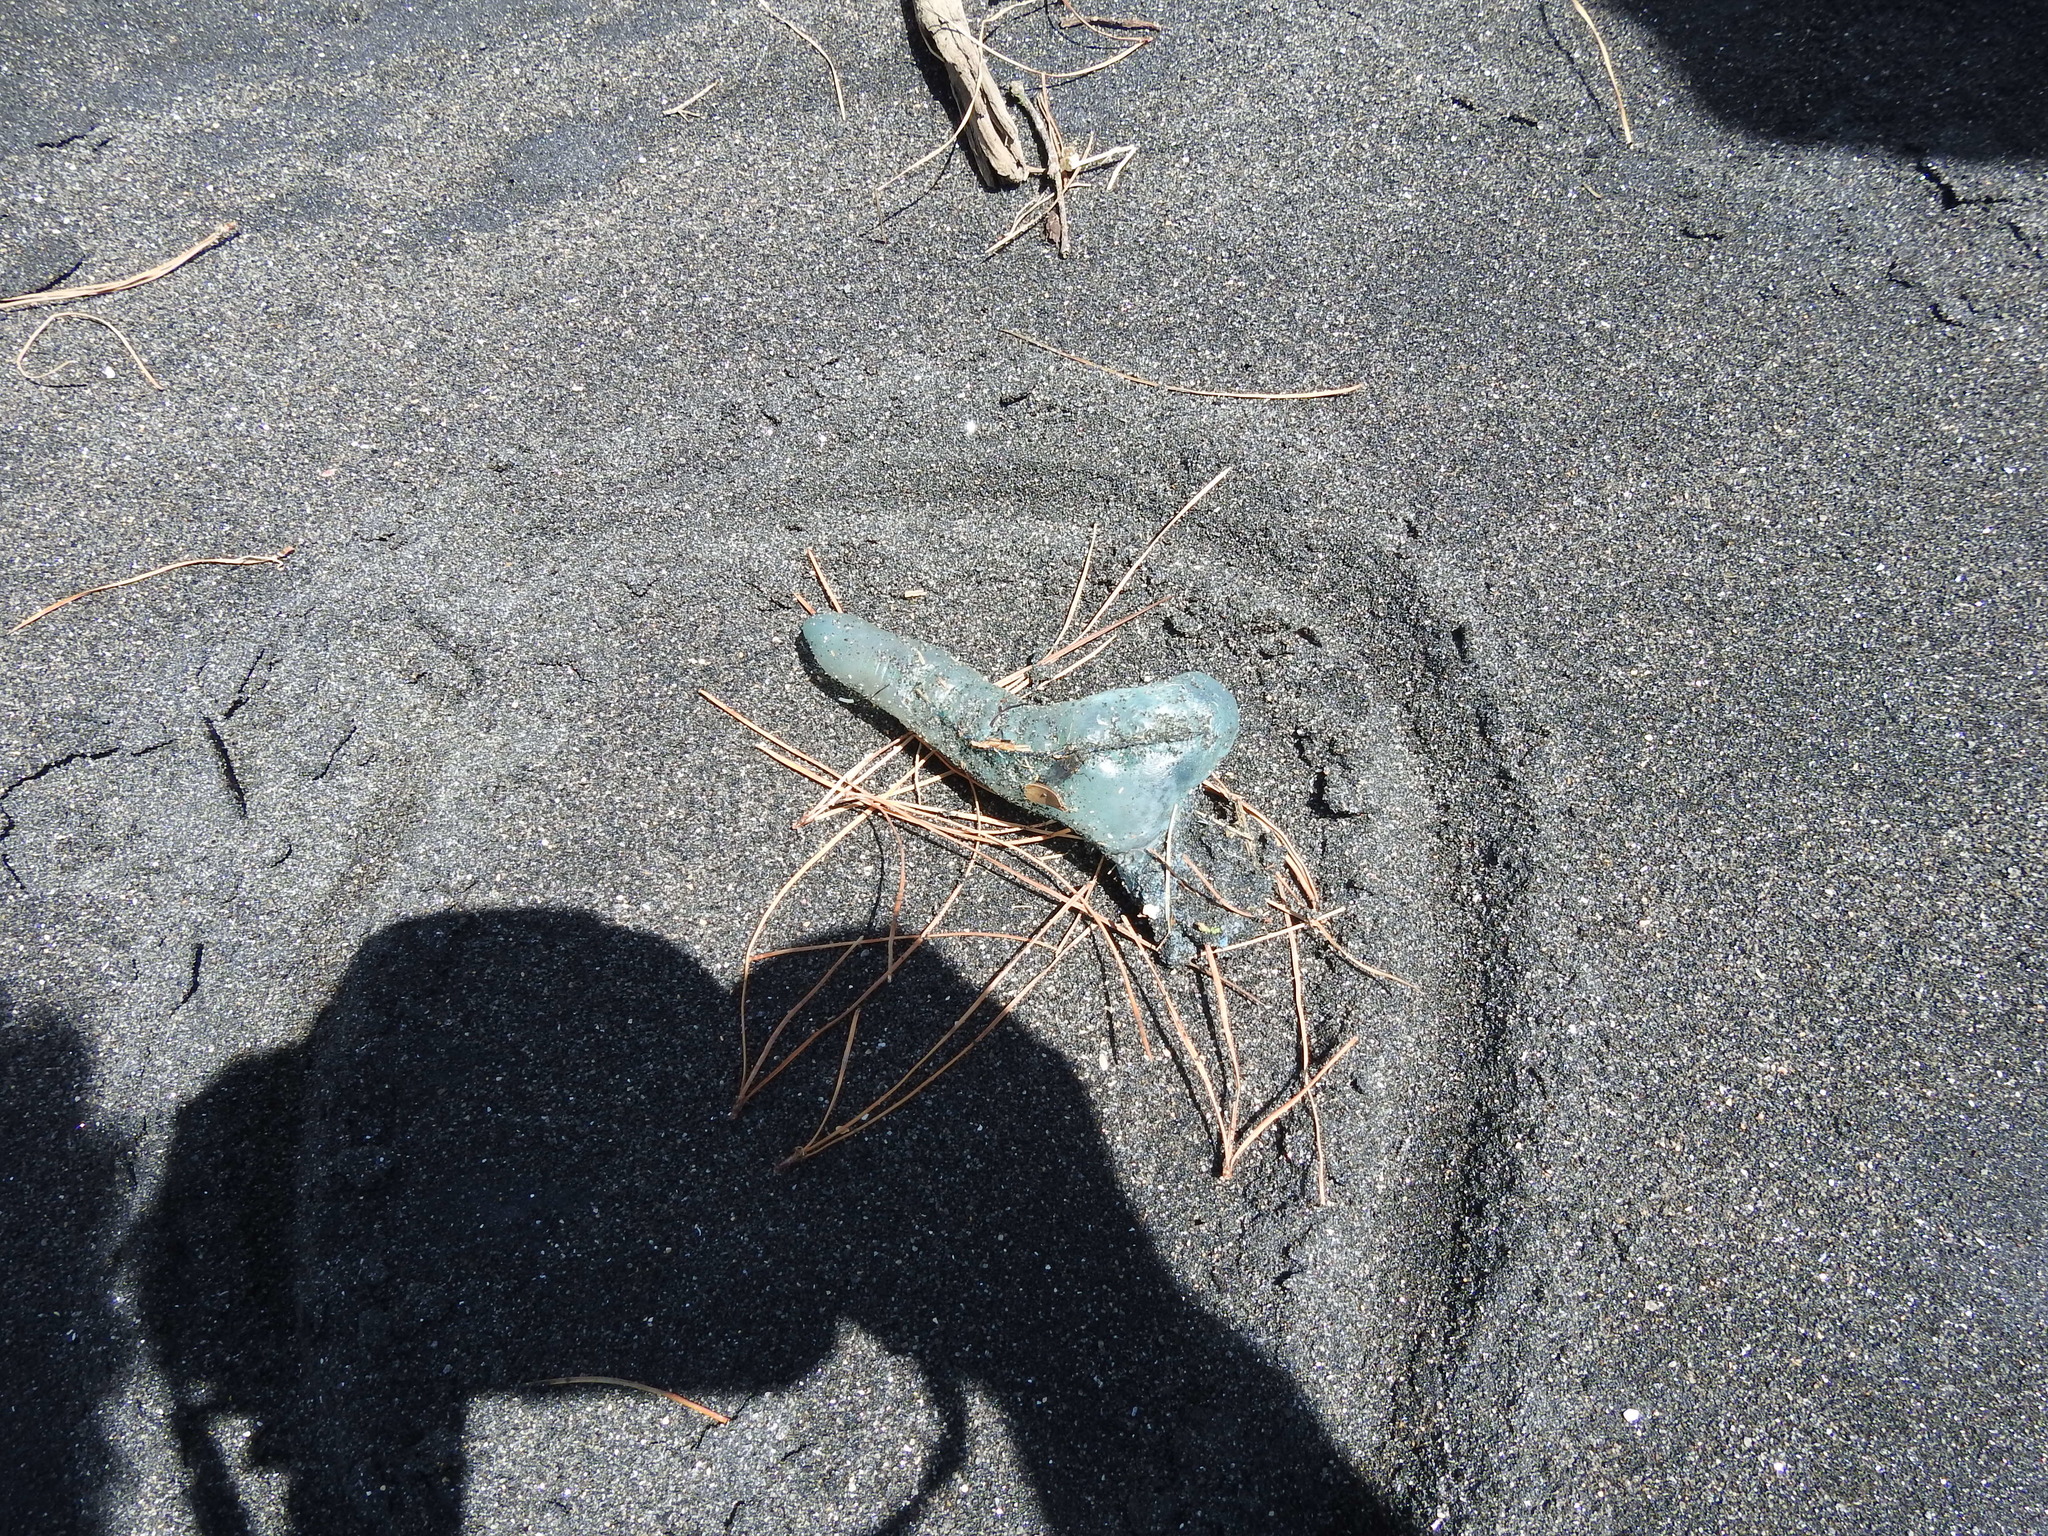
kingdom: Animalia
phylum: Cnidaria
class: Hydrozoa
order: Siphonophorae
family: Physaliidae
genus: Physalia
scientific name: Physalia physalis
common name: Portuguese man-of-war
